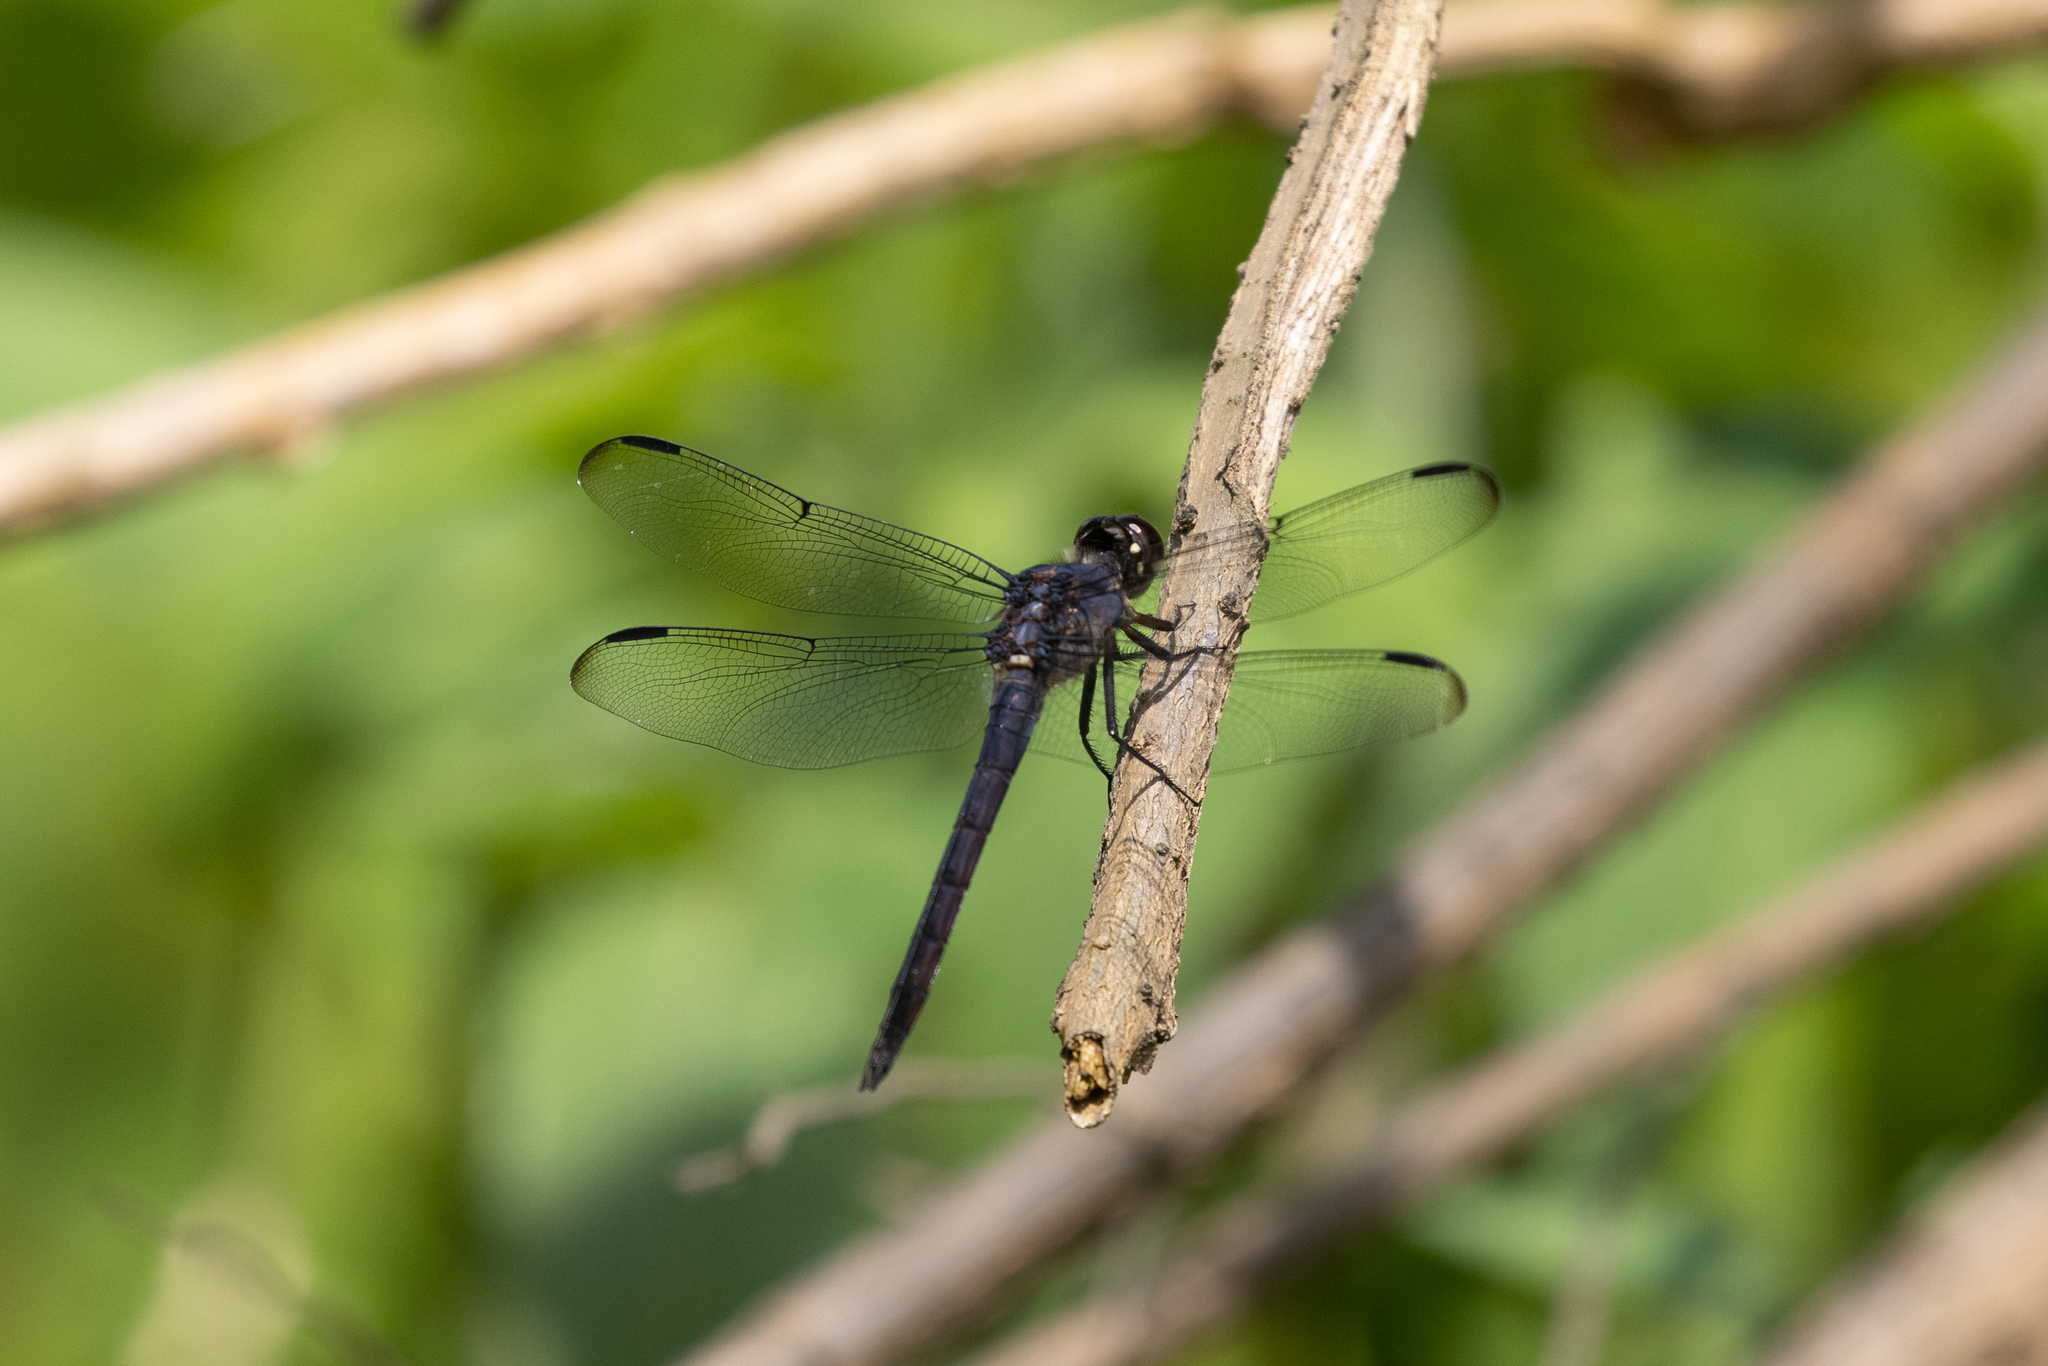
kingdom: Animalia
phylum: Arthropoda
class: Insecta
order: Odonata
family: Libellulidae
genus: Libellula
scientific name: Libellula incesta
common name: Slaty skimmer
